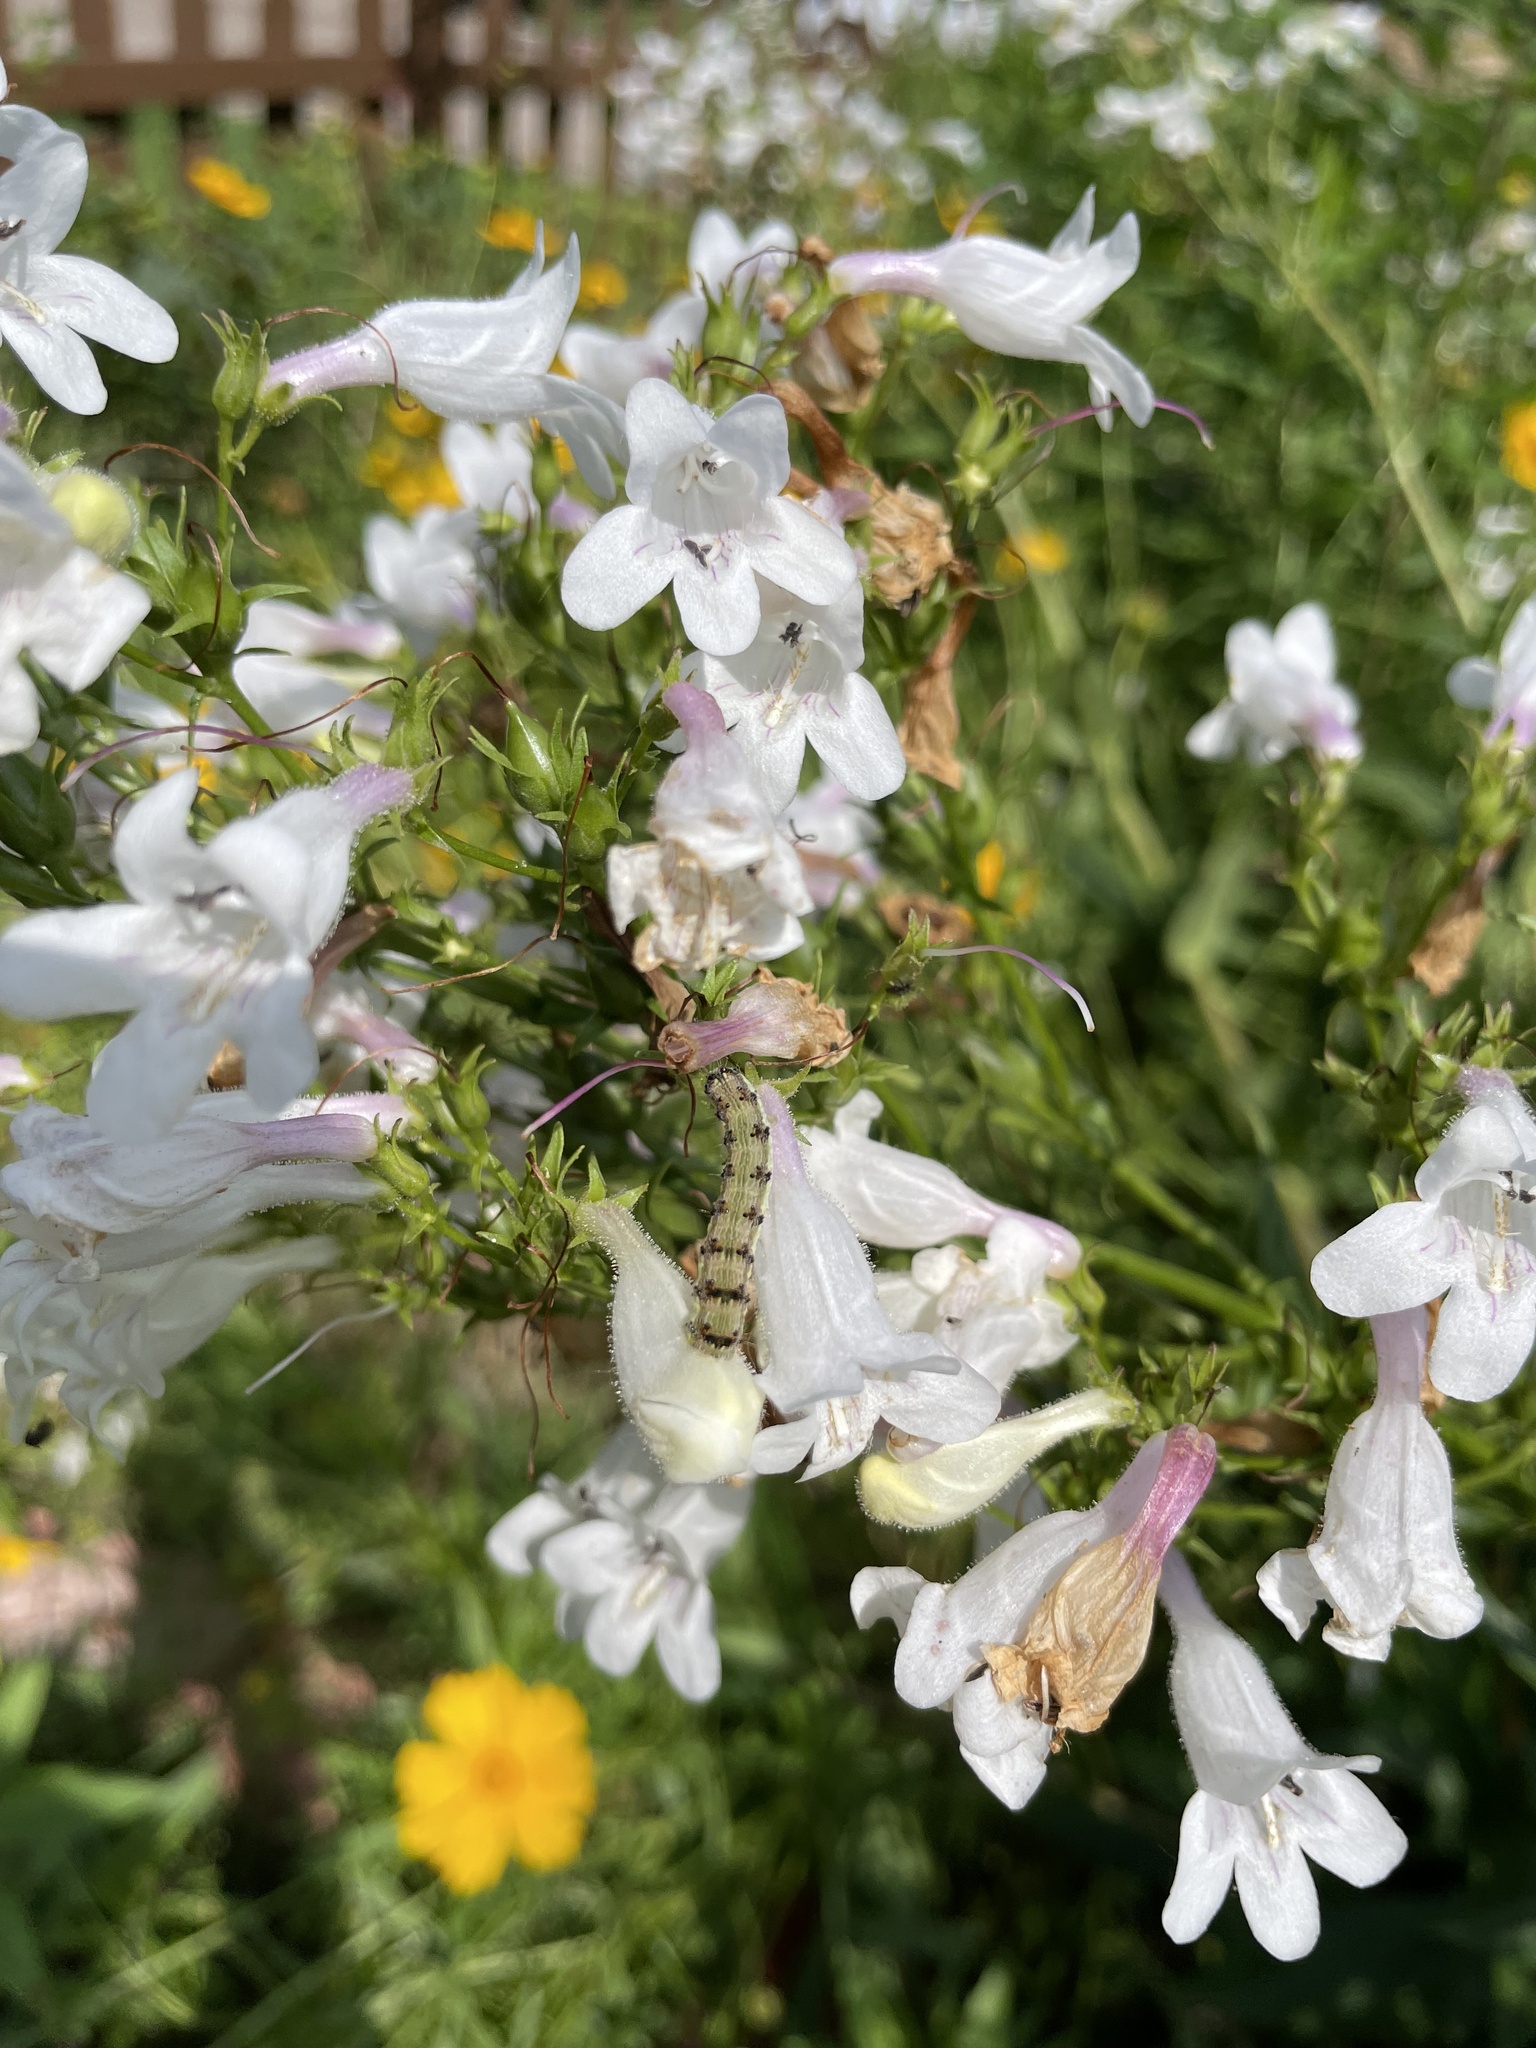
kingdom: Animalia
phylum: Arthropoda
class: Insecta
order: Lepidoptera
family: Noctuidae
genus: Chloridea
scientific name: Chloridea virescens
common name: Tobacco budworm
